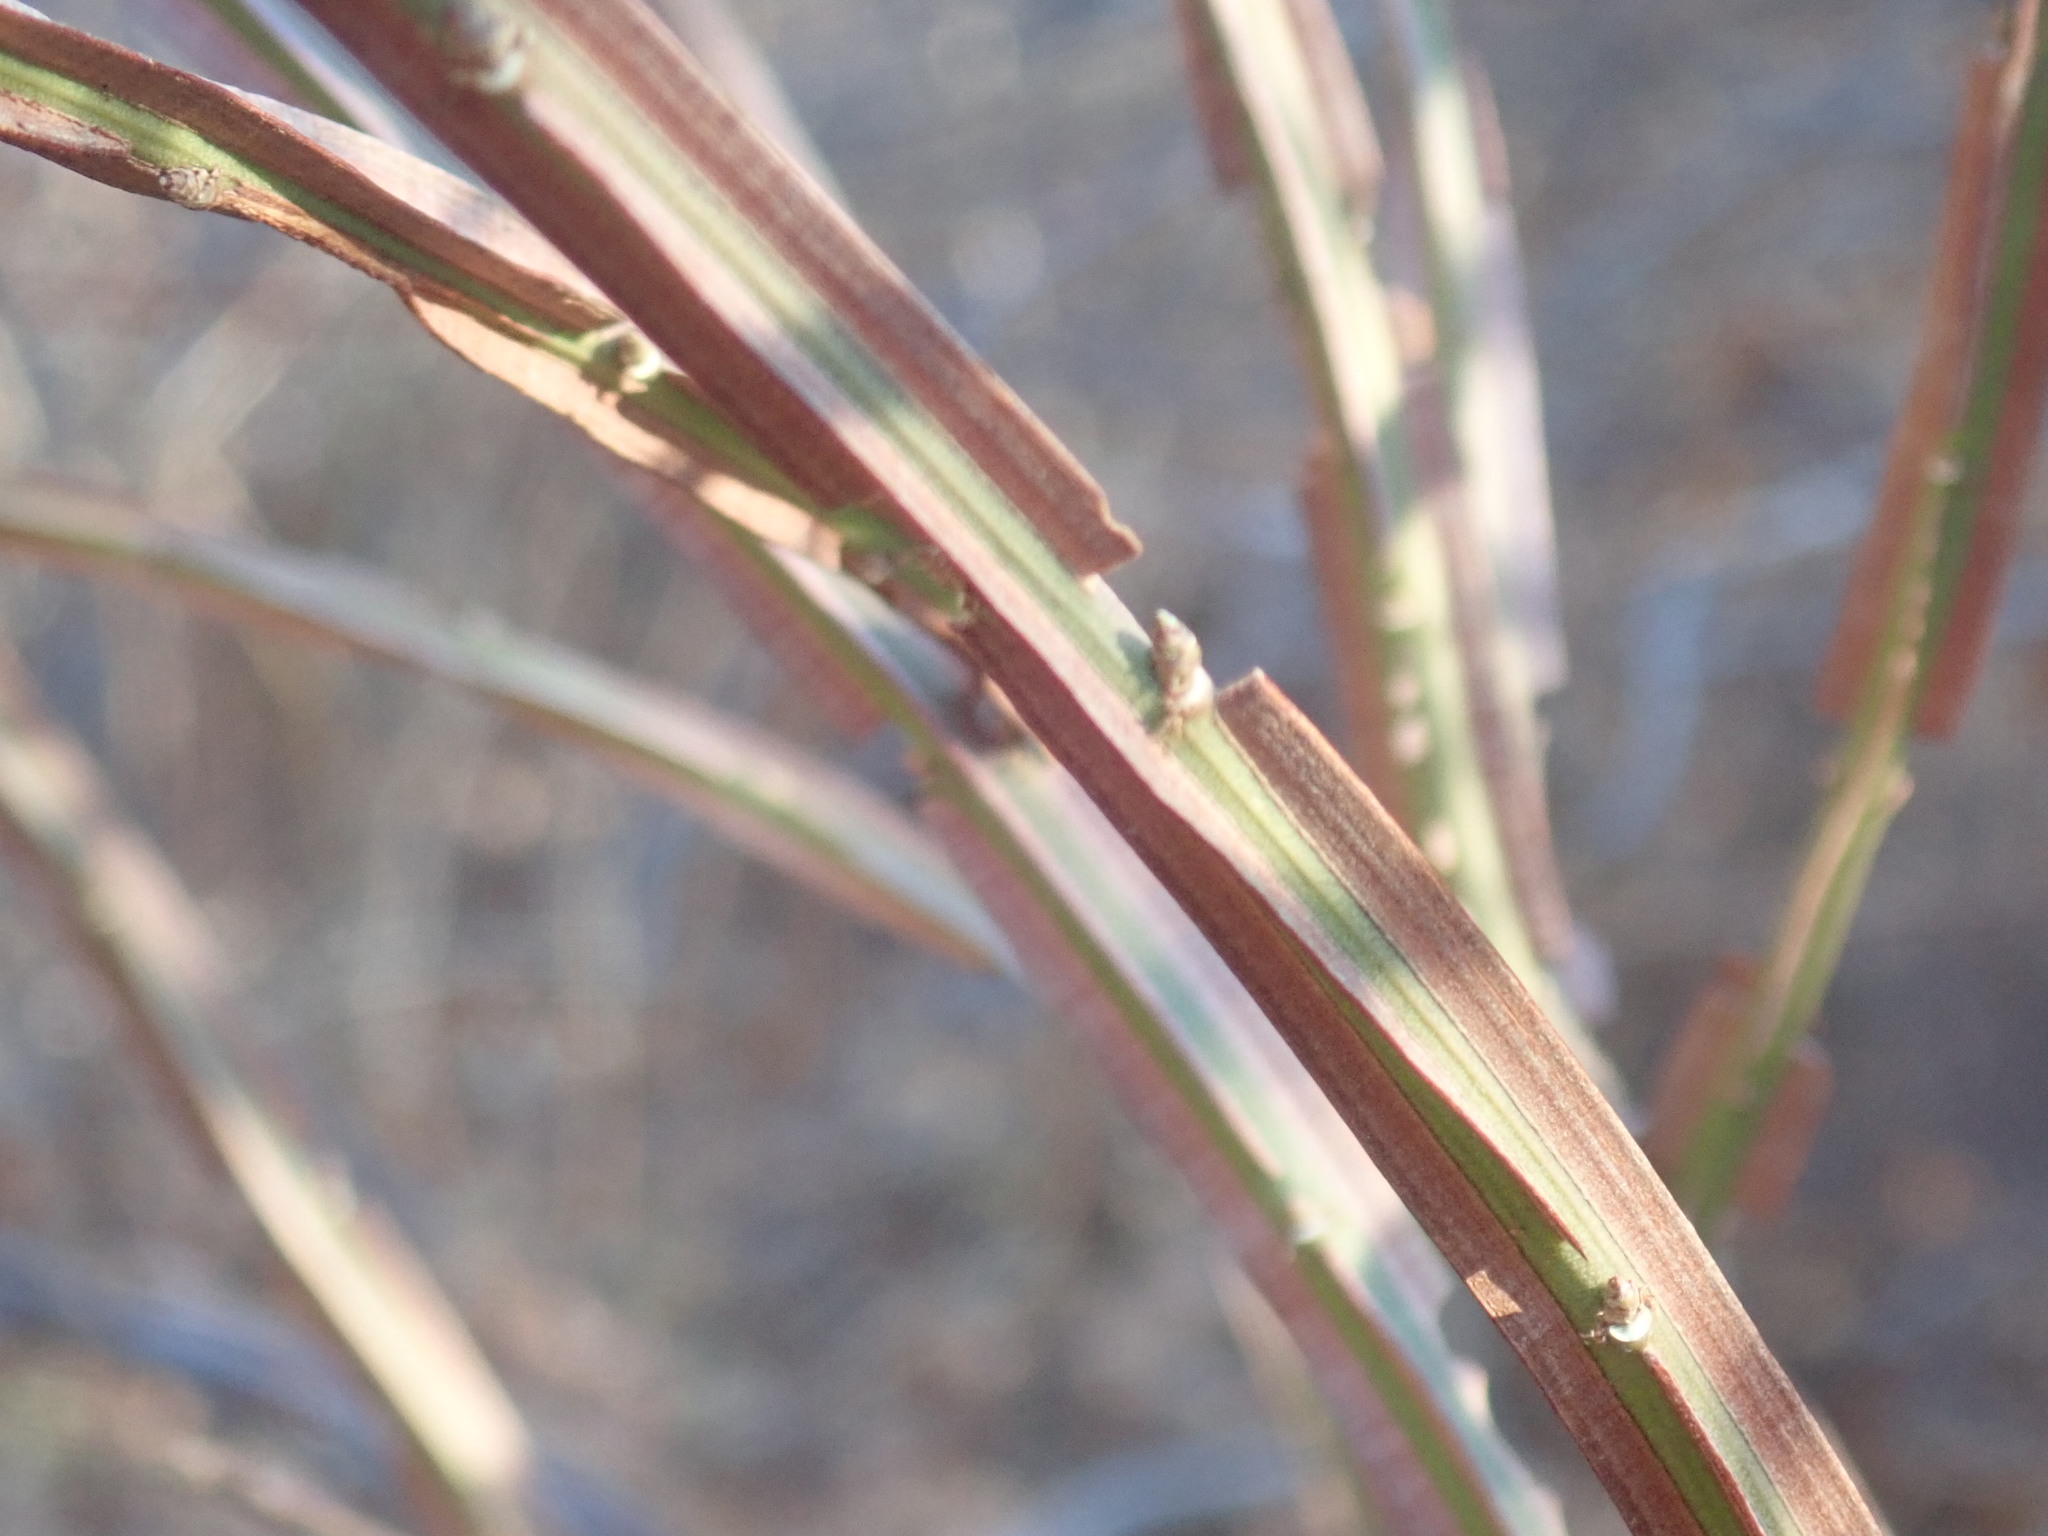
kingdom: Plantae
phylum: Tracheophyta
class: Magnoliopsida
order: Celastrales
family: Celastraceae
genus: Euonymus
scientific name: Euonymus alatus
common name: Winged euonymus
